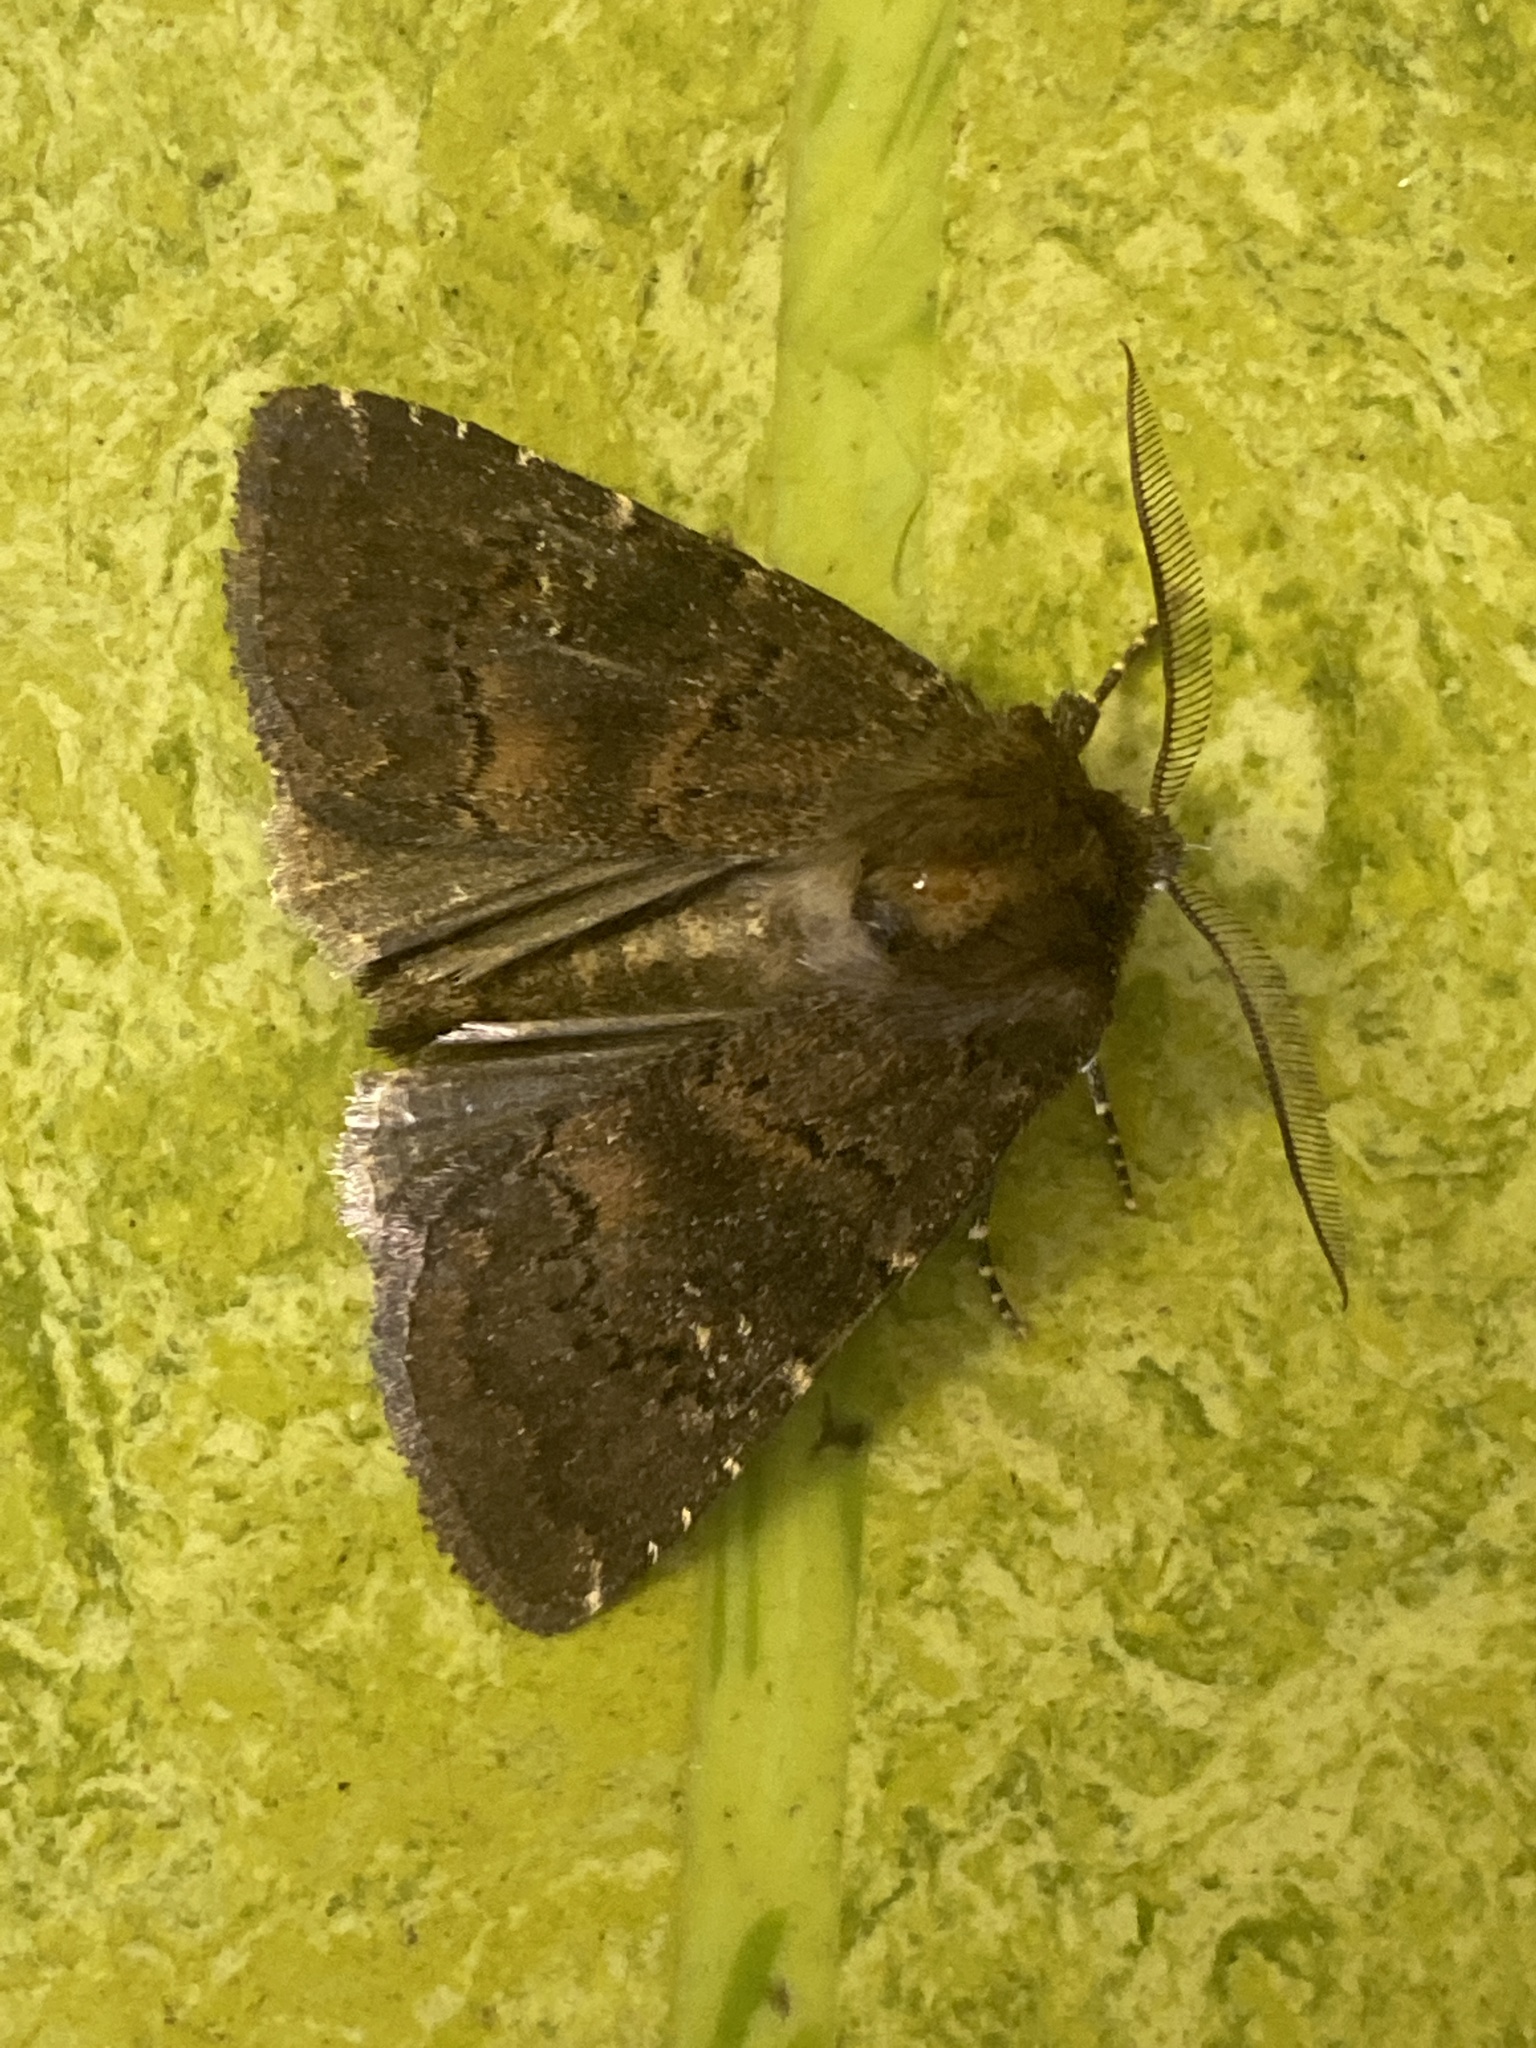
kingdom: Animalia
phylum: Arthropoda
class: Insecta
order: Lepidoptera
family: Noctuidae
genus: Charanyca
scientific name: Charanyca ferruginea
